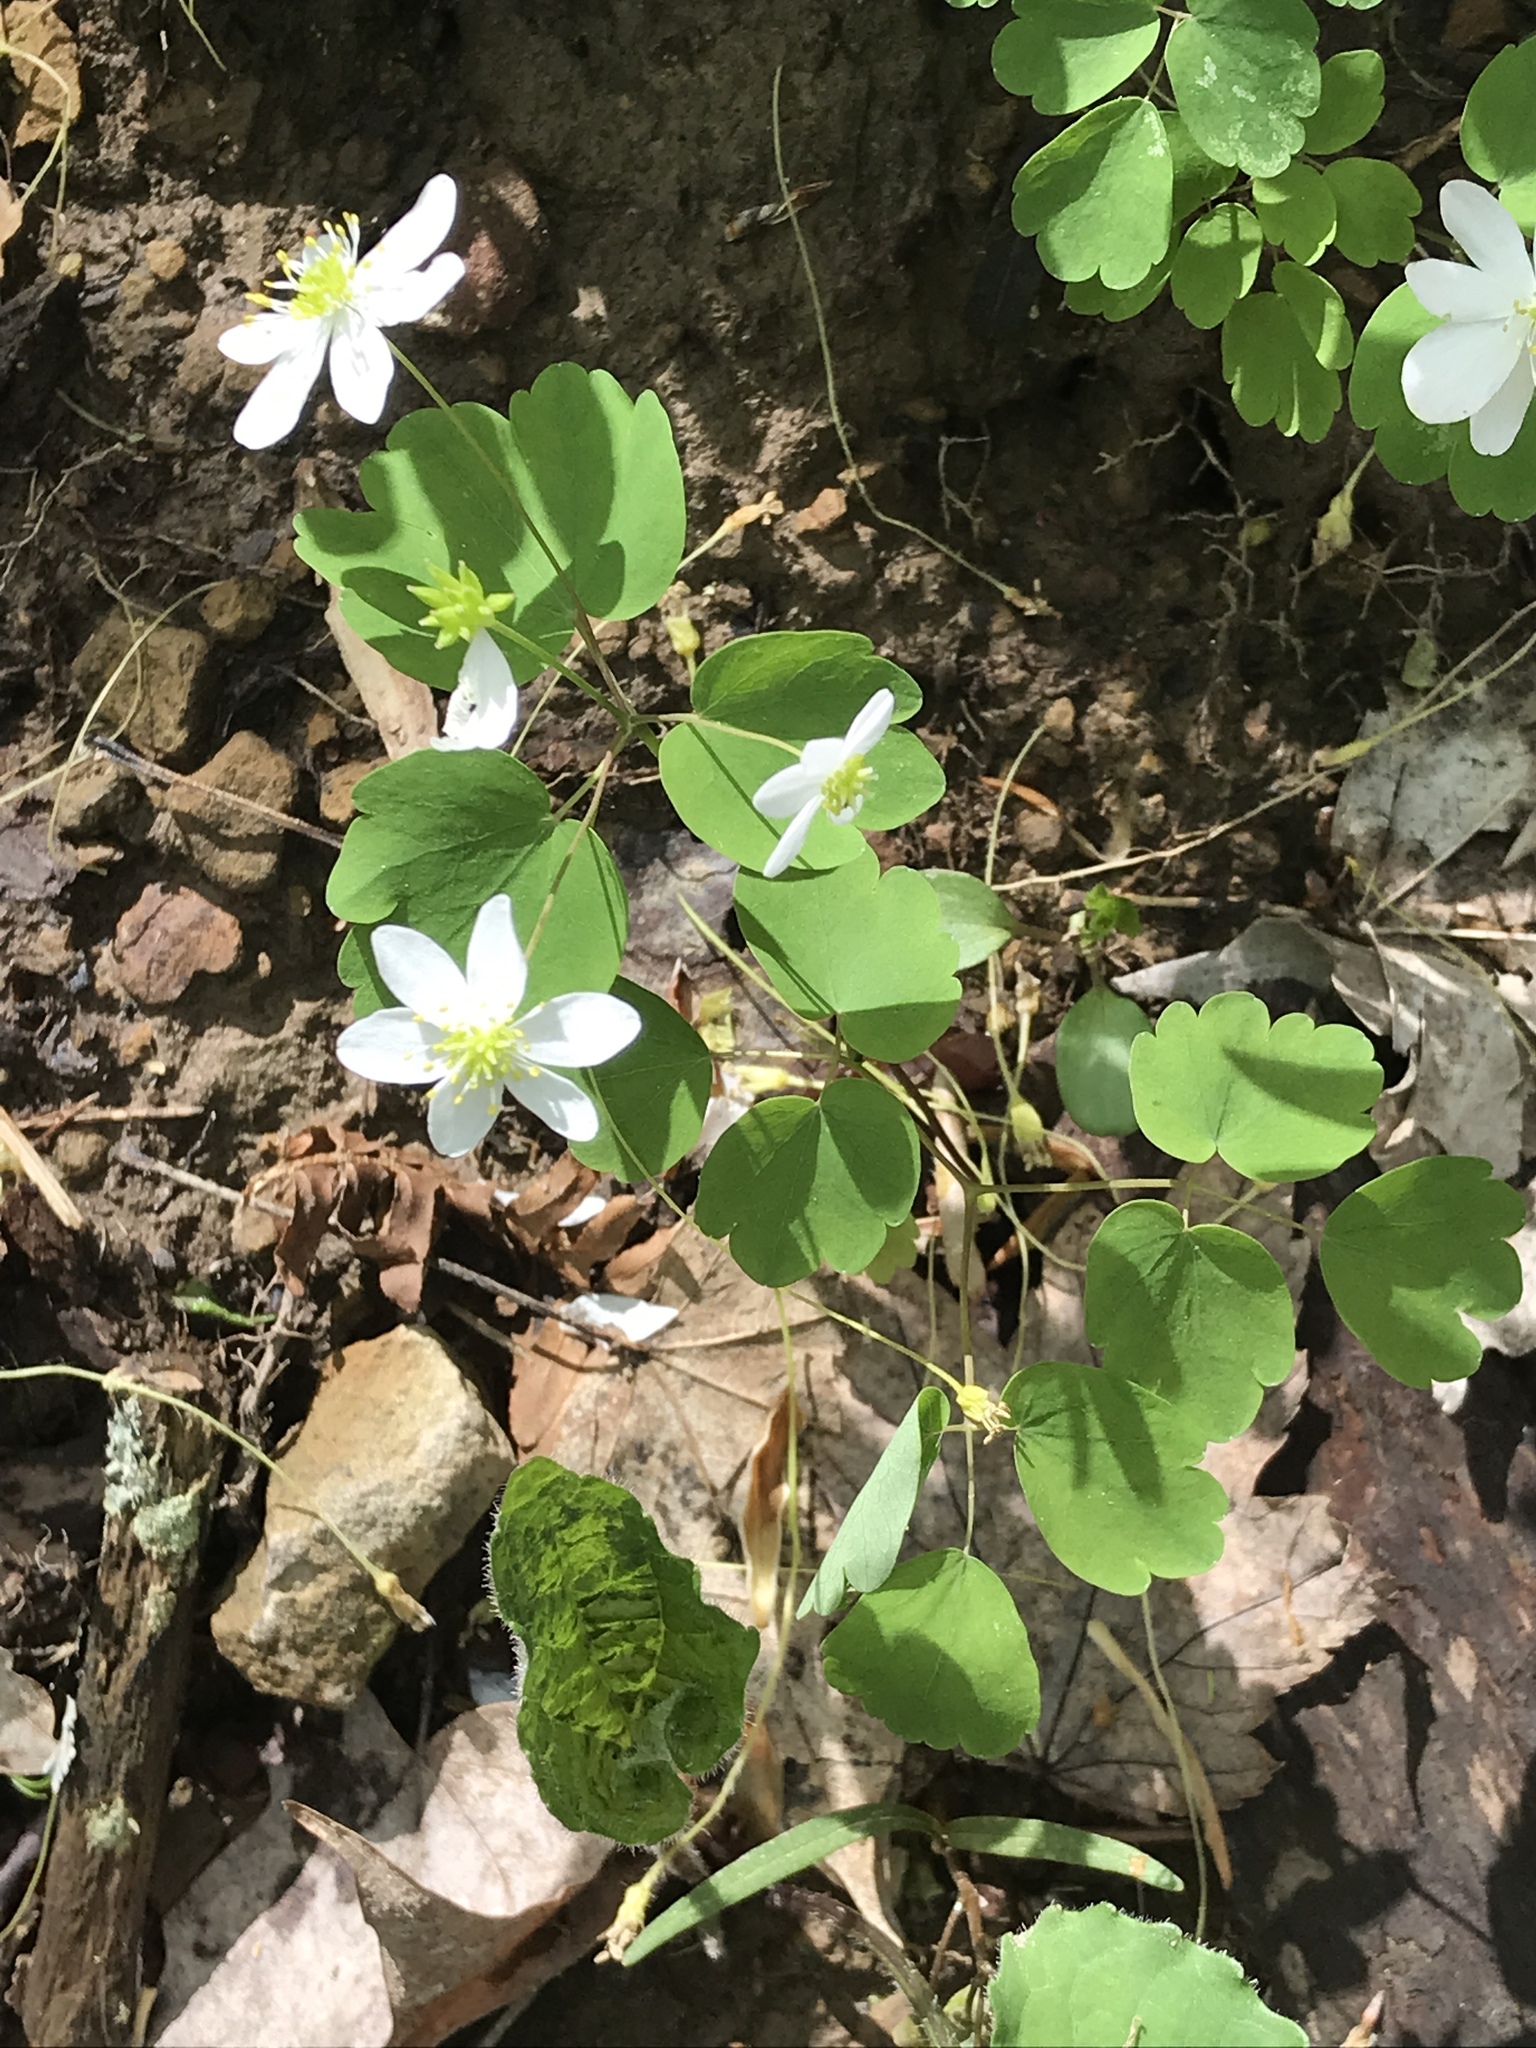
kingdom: Plantae
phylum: Tracheophyta
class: Magnoliopsida
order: Ranunculales
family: Ranunculaceae
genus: Thalictrum
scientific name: Thalictrum thalictroides
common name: Rue-anemone
